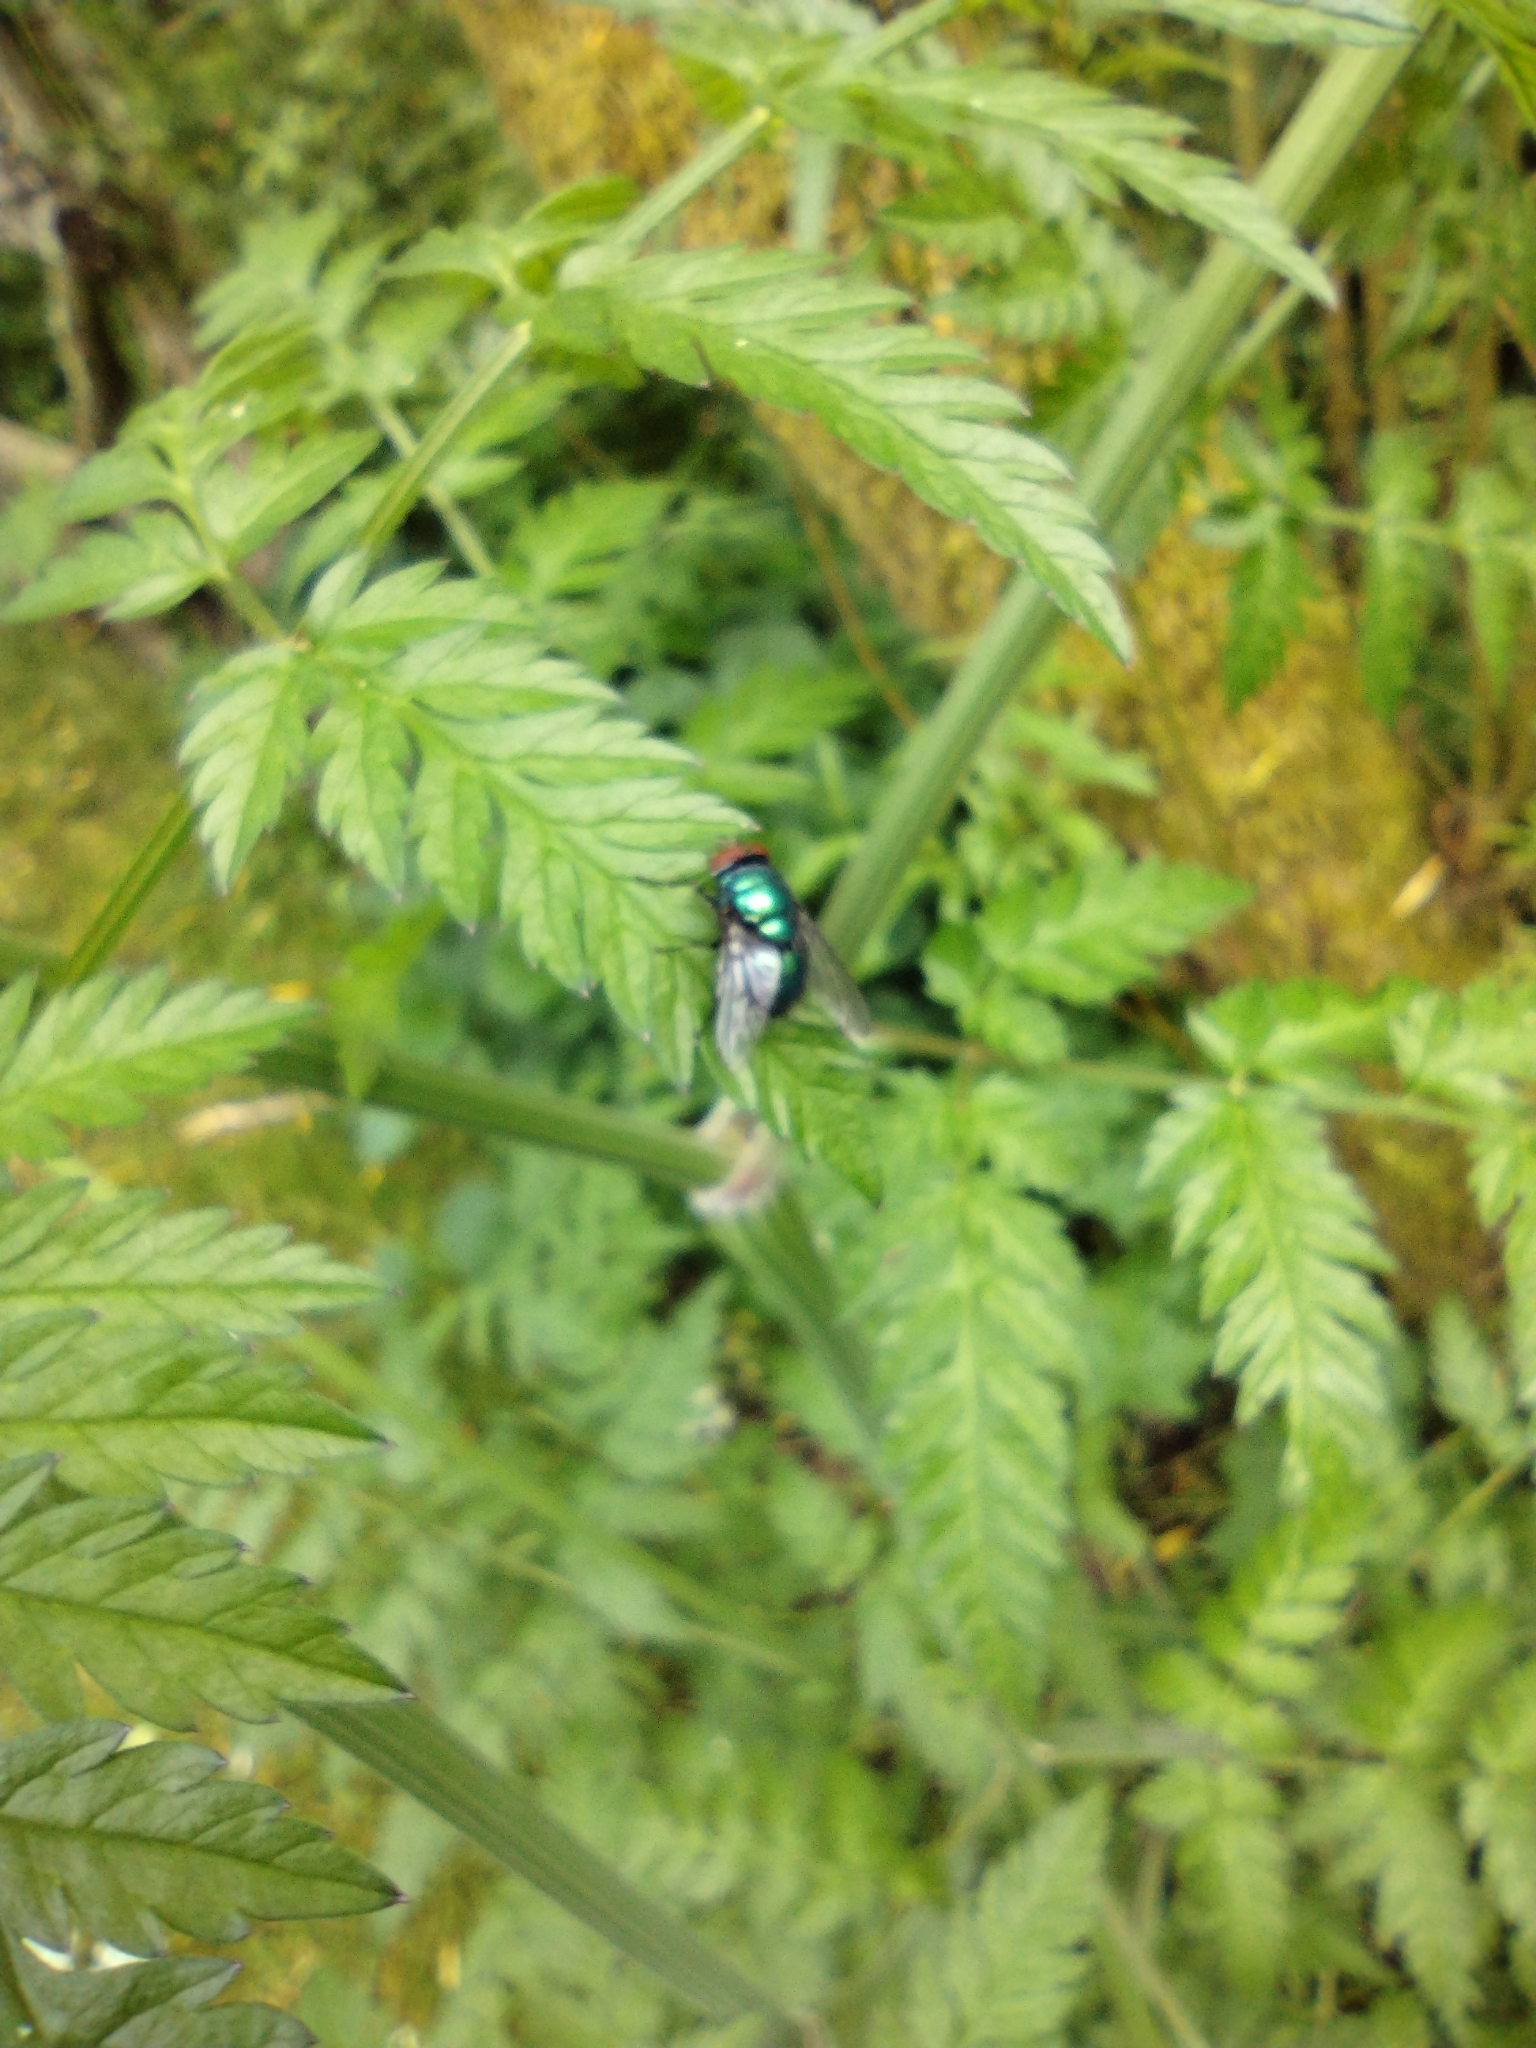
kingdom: Animalia
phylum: Arthropoda
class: Insecta
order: Diptera
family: Calliphoridae
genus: Lucilia
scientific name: Lucilia sericata
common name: Blow fly
